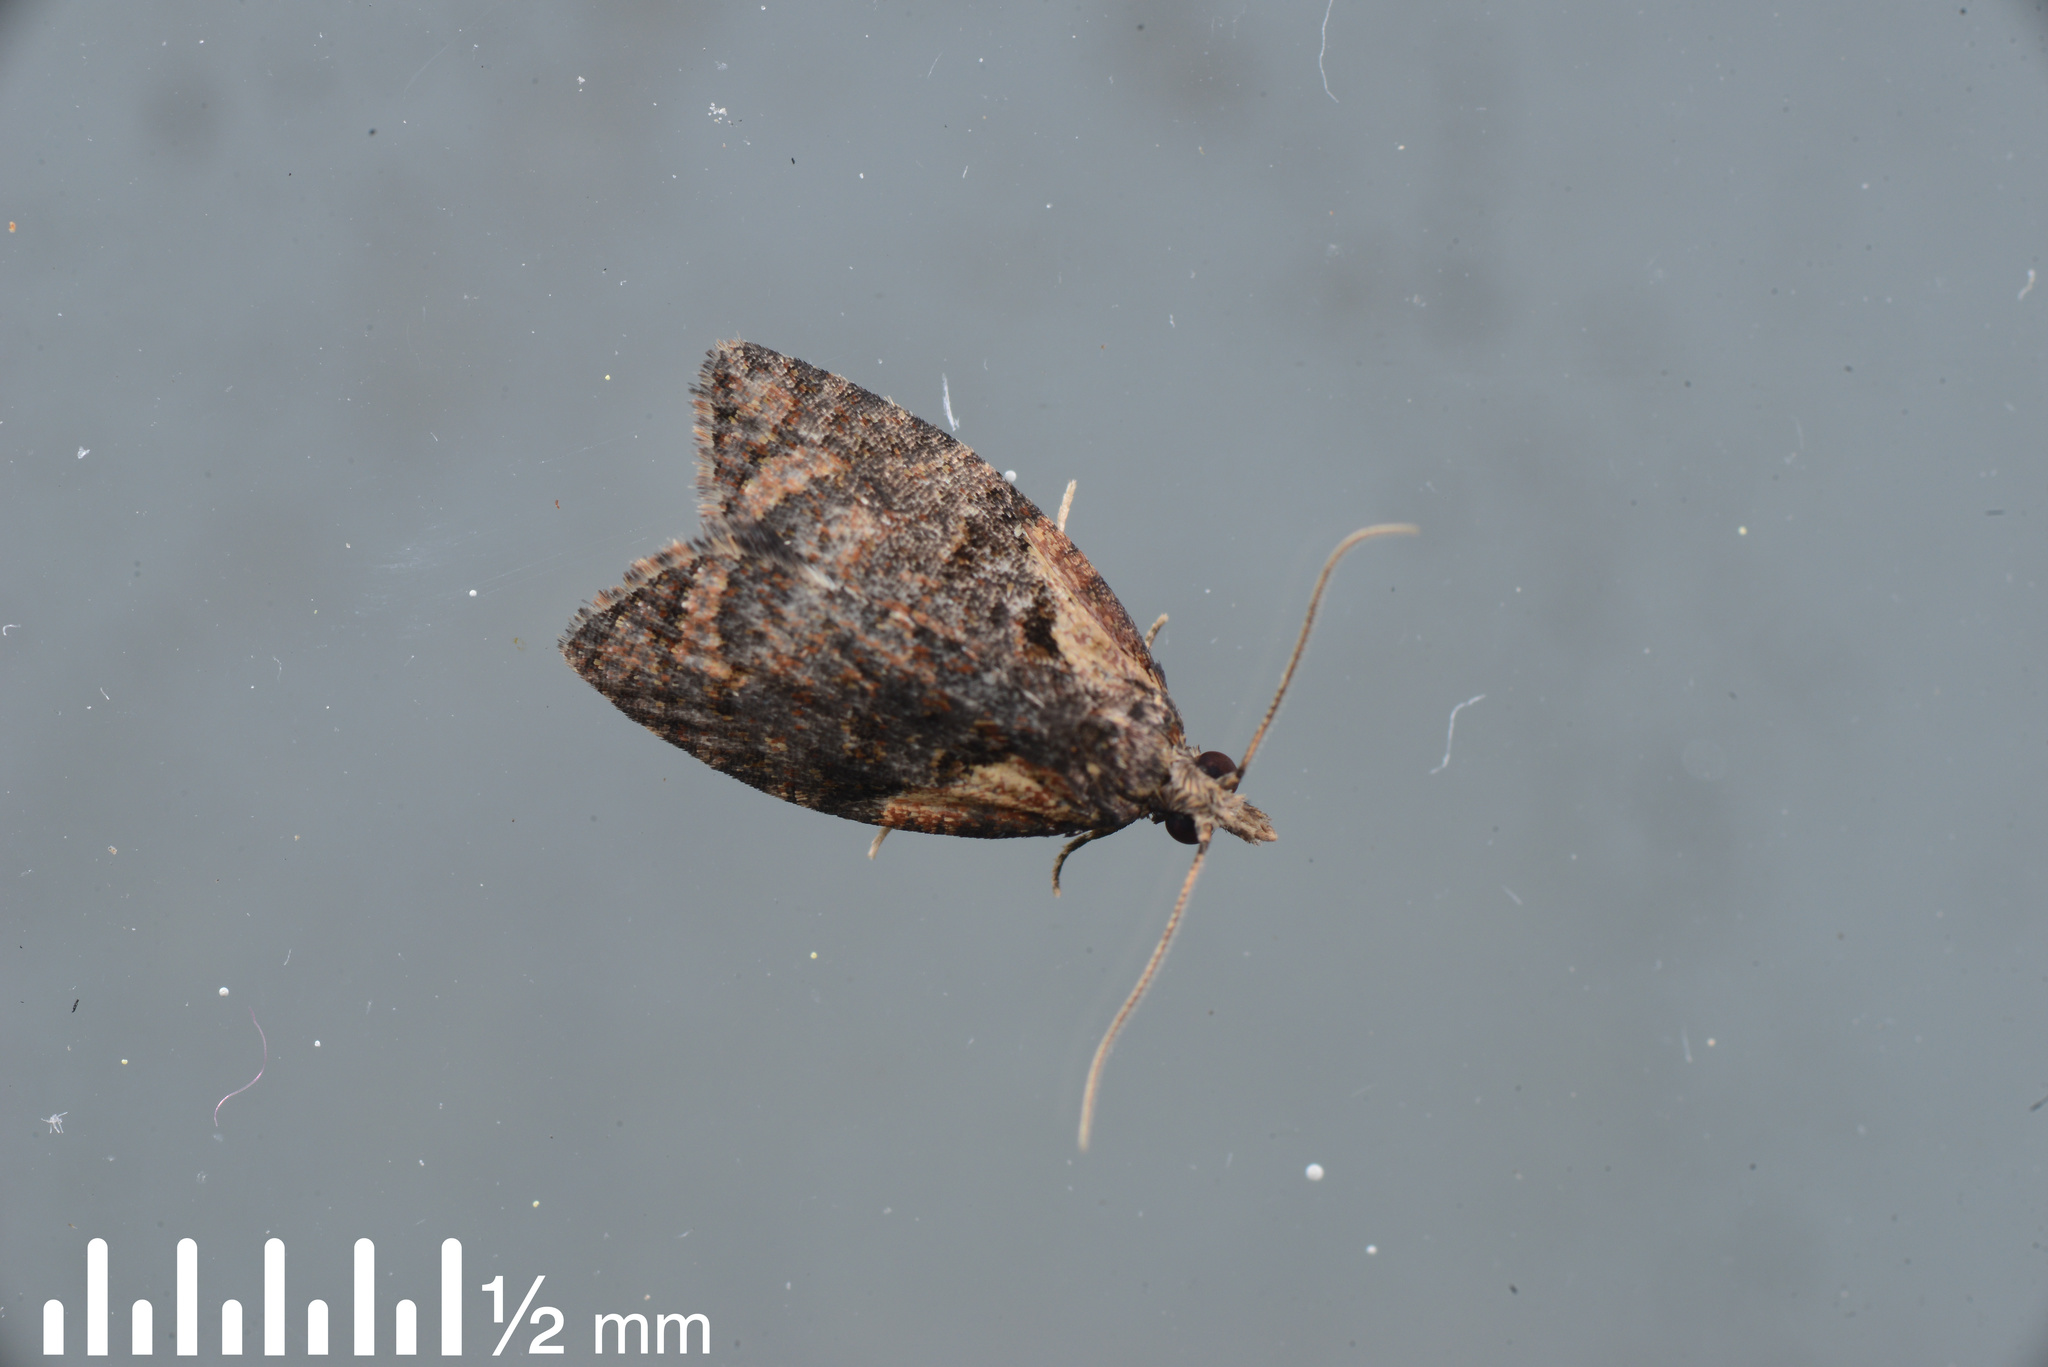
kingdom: Animalia
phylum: Arthropoda
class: Insecta
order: Lepidoptera
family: Tortricidae
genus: Capua
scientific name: Capua intractana
